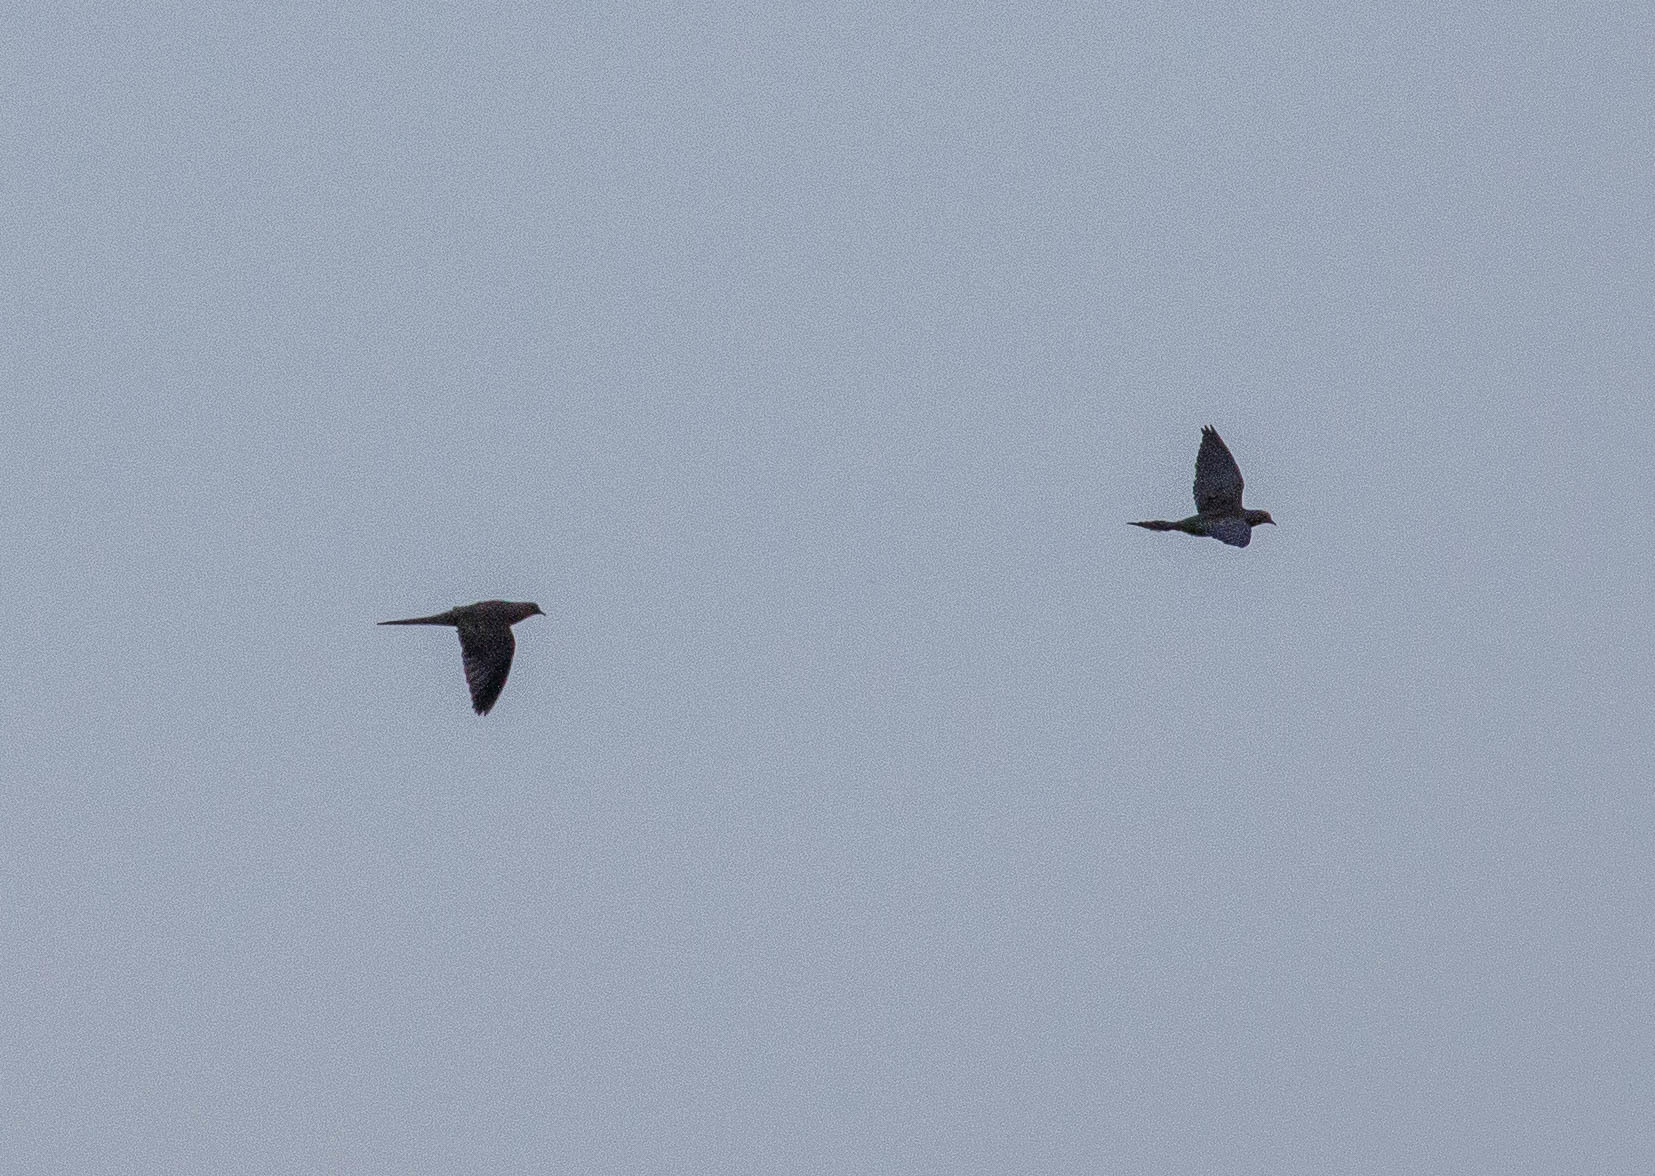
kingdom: Animalia
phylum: Chordata
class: Aves
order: Columbiformes
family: Columbidae
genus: Zenaida
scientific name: Zenaida macroura
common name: Mourning dove
